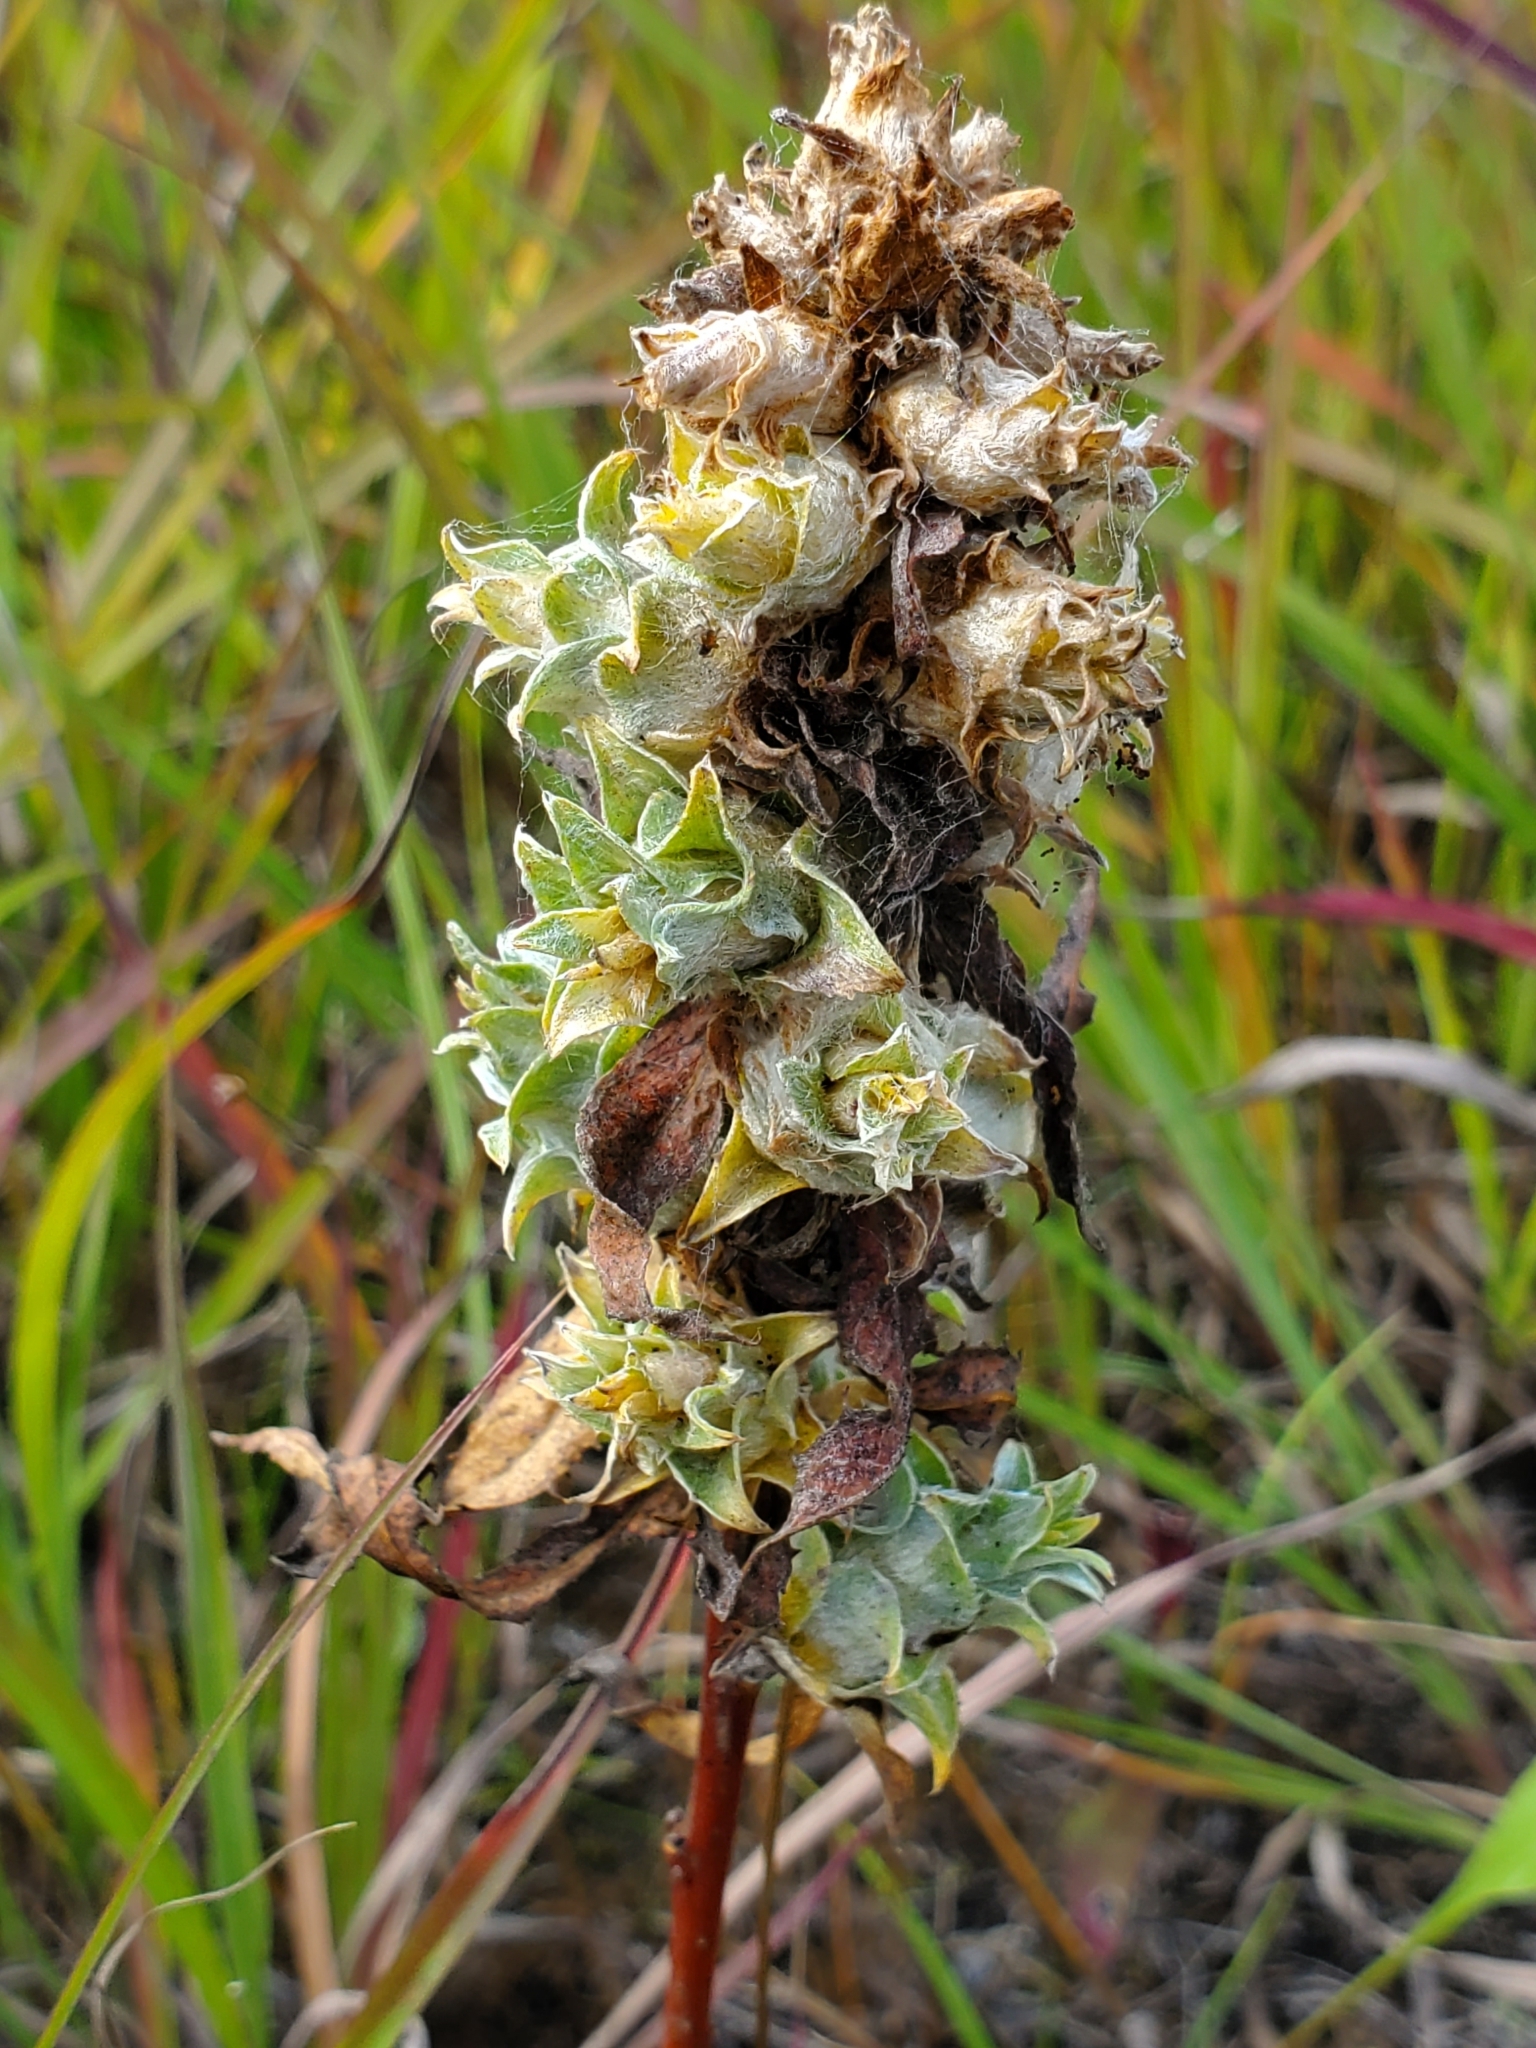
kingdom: Animalia
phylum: Arthropoda
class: Insecta
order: Diptera
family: Cecidomyiidae
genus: Rabdophaga
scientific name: Rabdophaga salicisbrassicoides
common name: Willow cabbagegall midge
